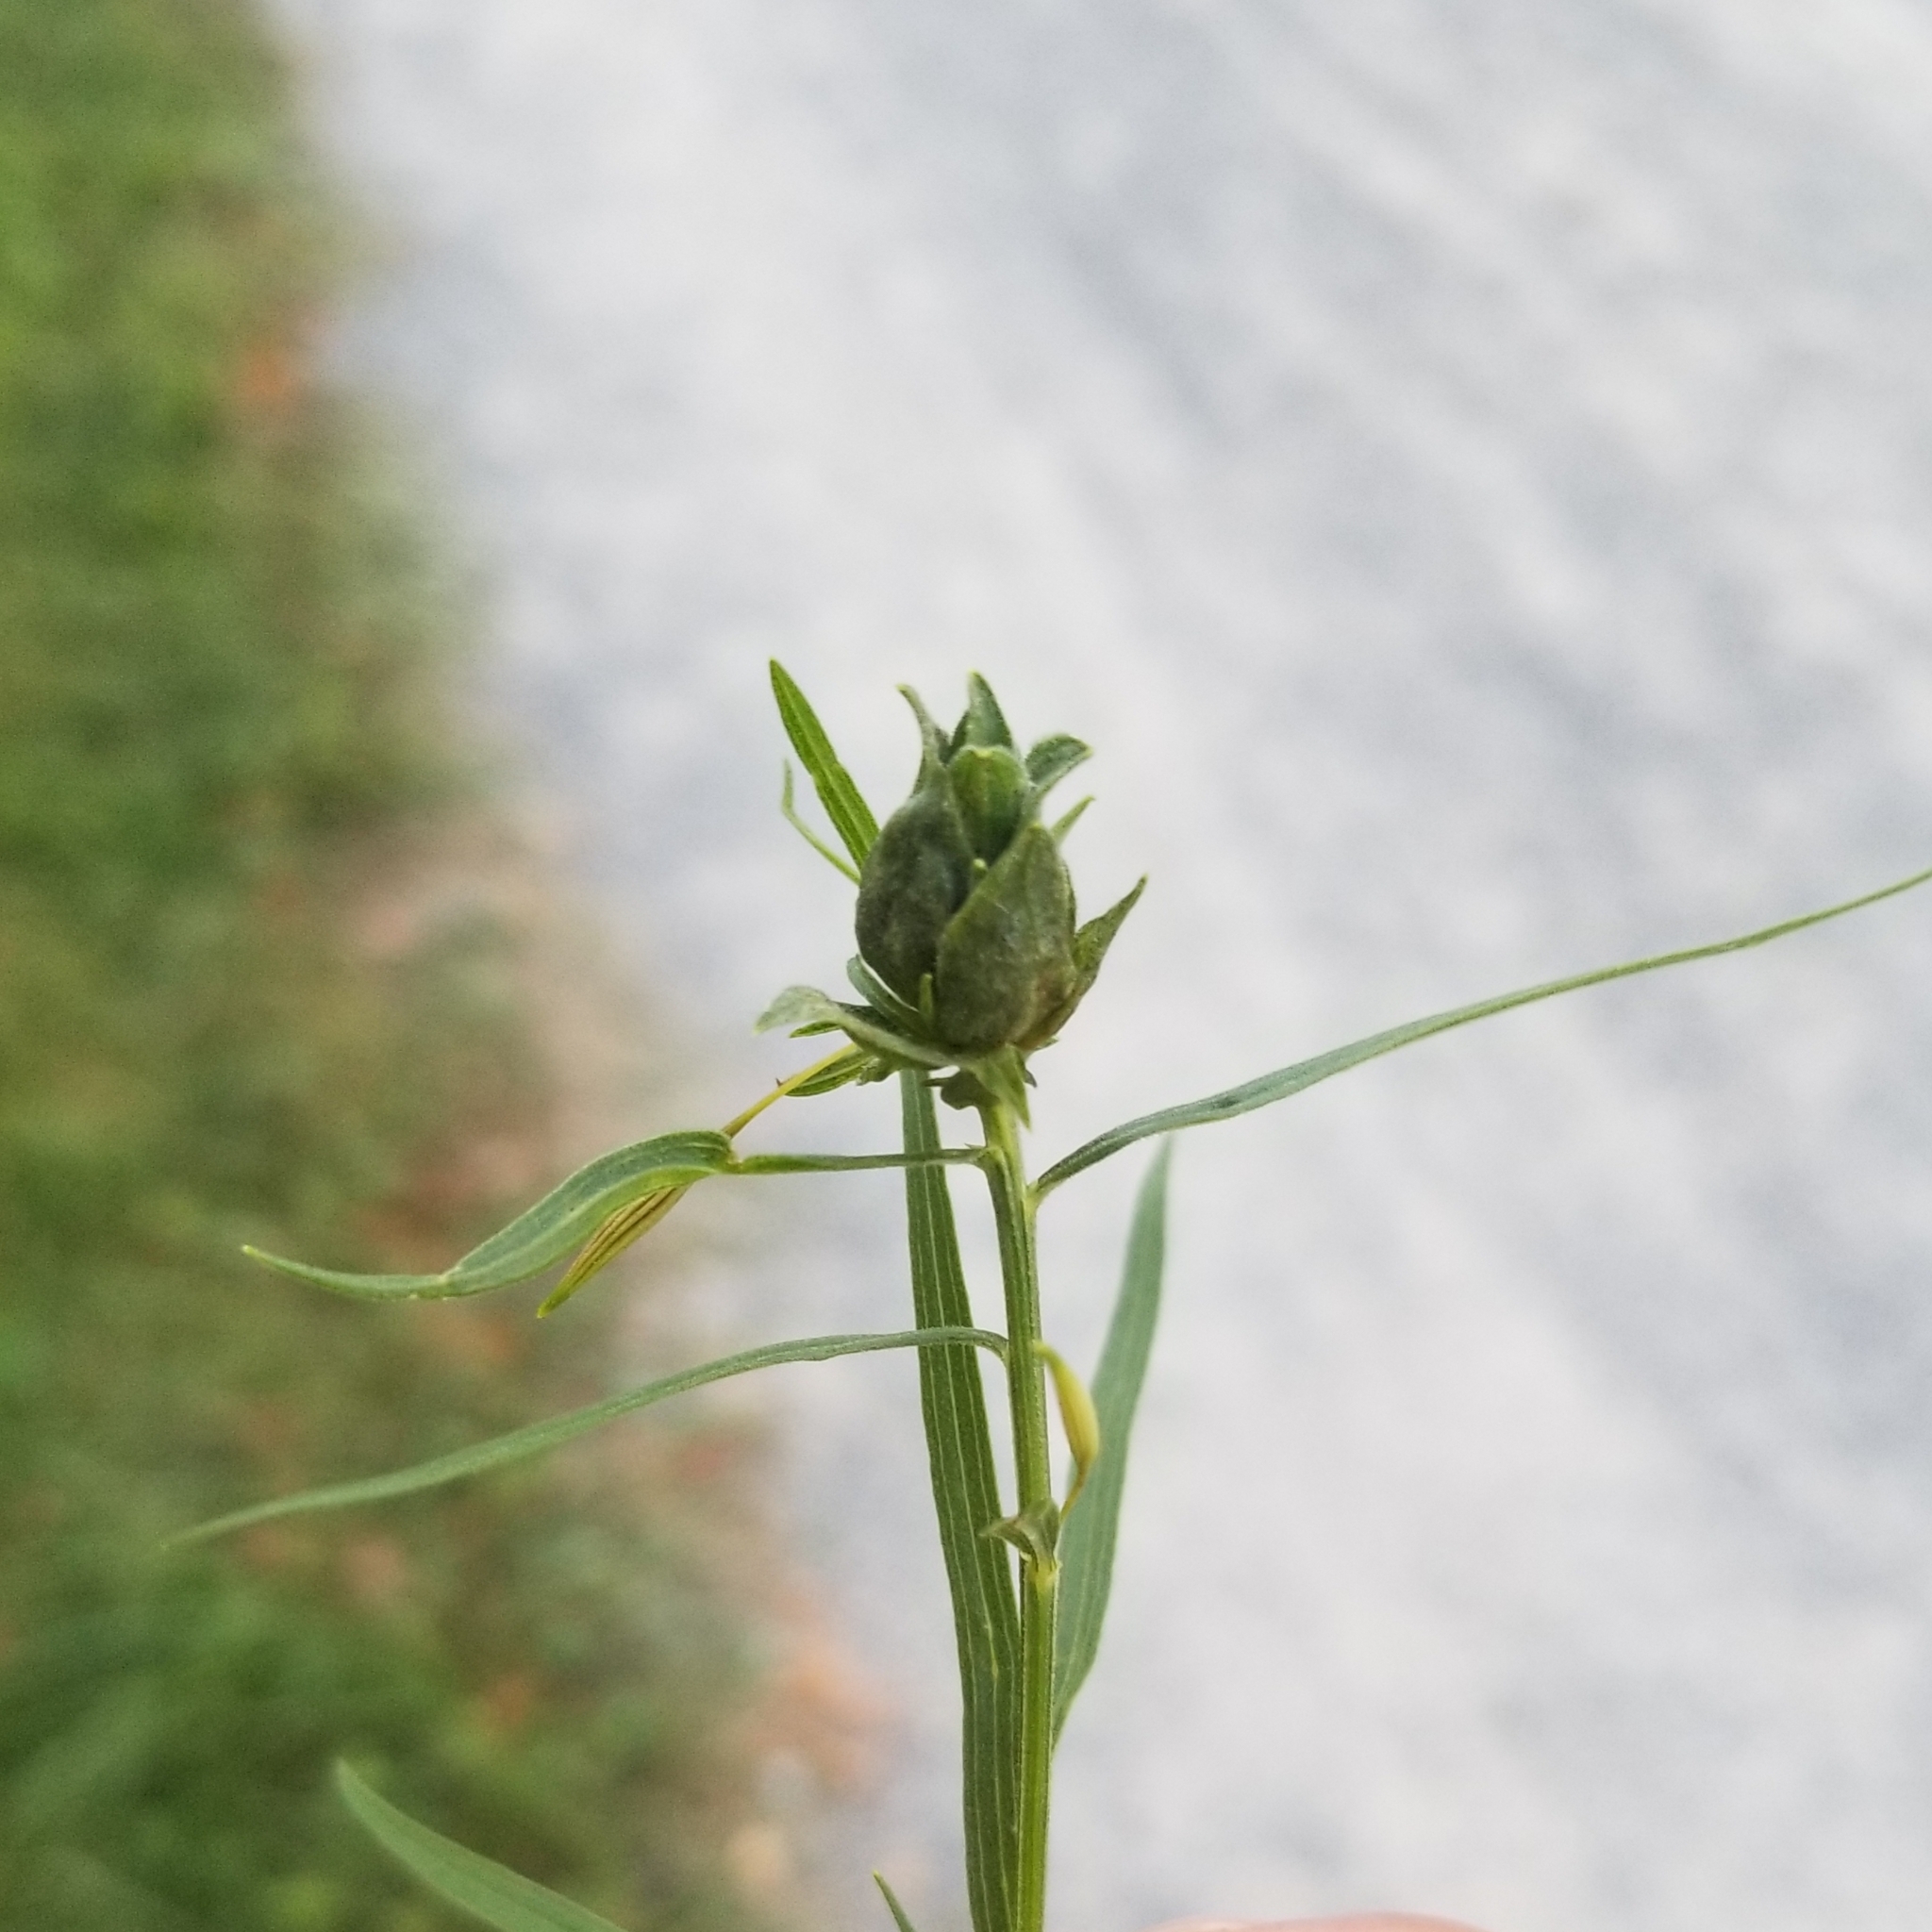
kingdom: Animalia
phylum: Arthropoda
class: Insecta
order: Diptera
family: Cecidomyiidae
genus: Asphondylia
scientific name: Asphondylia pseudorosa
